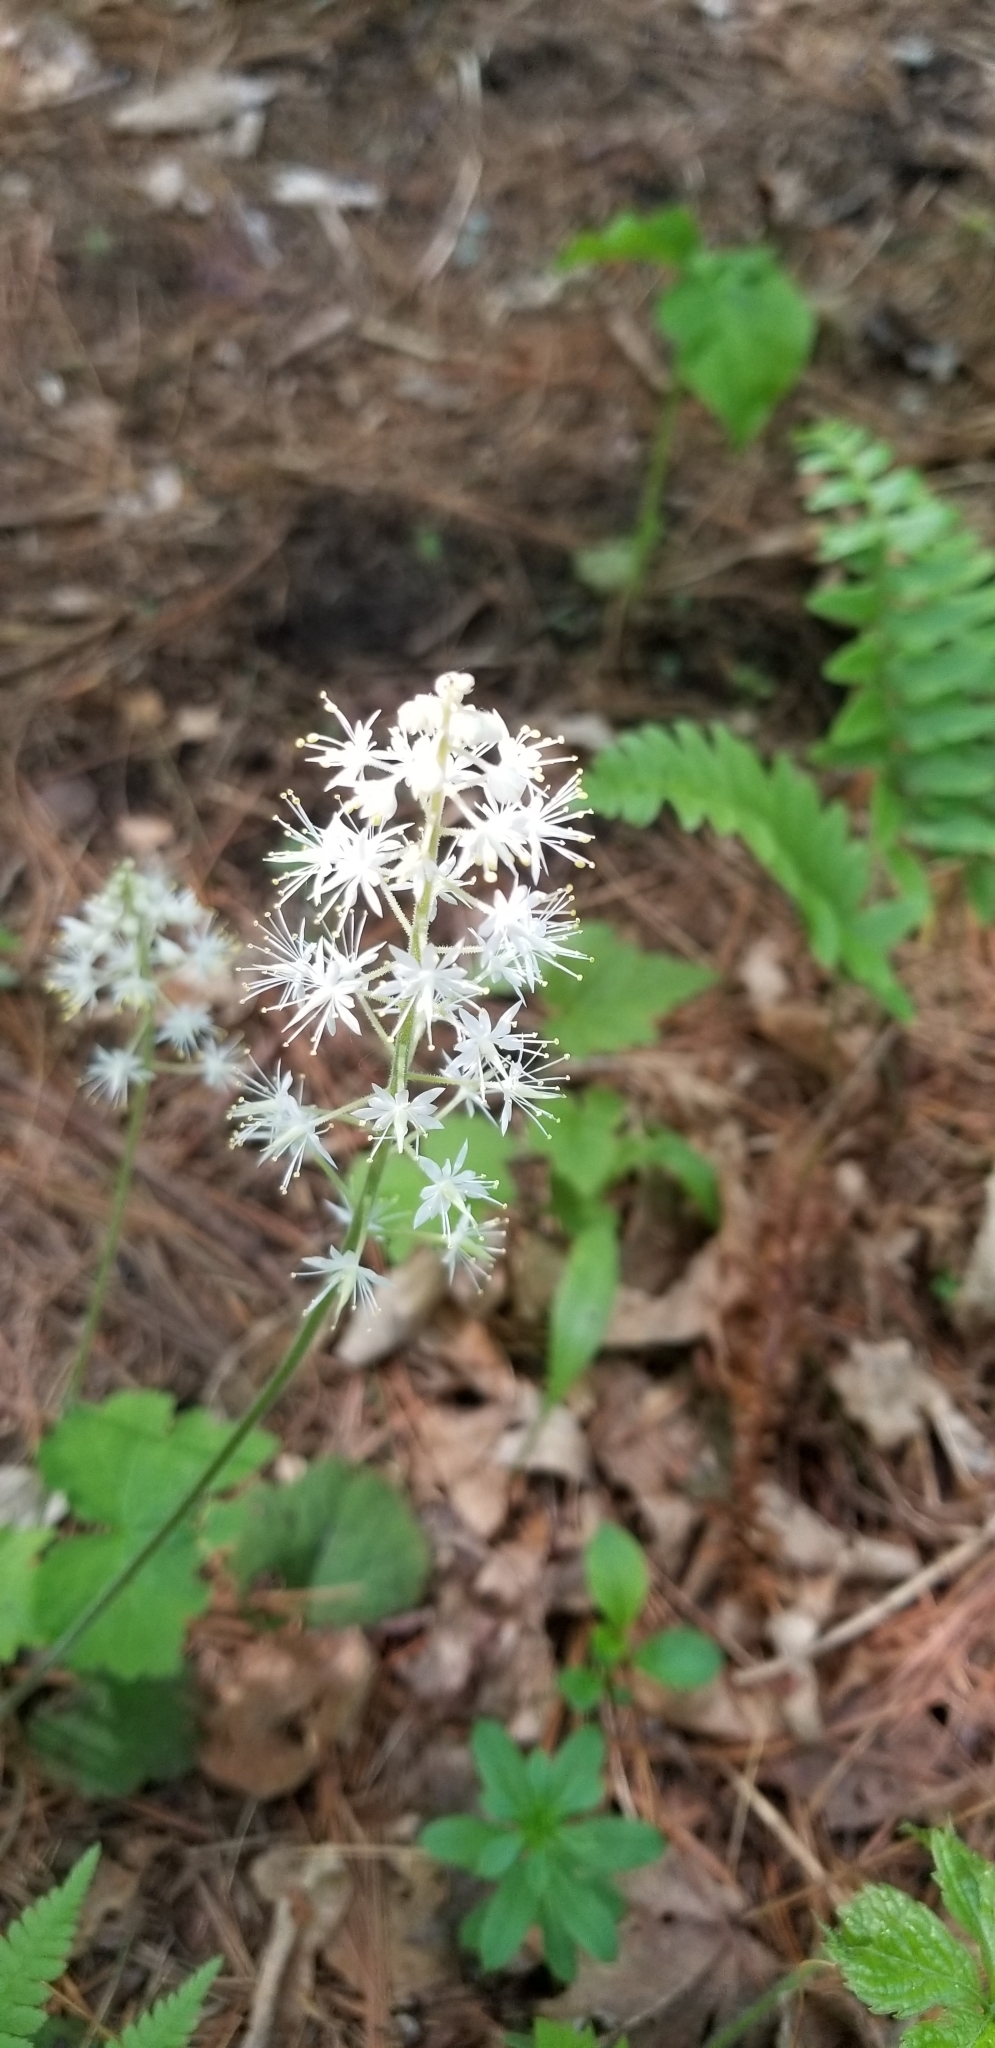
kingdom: Plantae
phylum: Tracheophyta
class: Magnoliopsida
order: Saxifragales
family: Saxifragaceae
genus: Tiarella
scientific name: Tiarella stolonifera
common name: Stoloniferous foamflower
